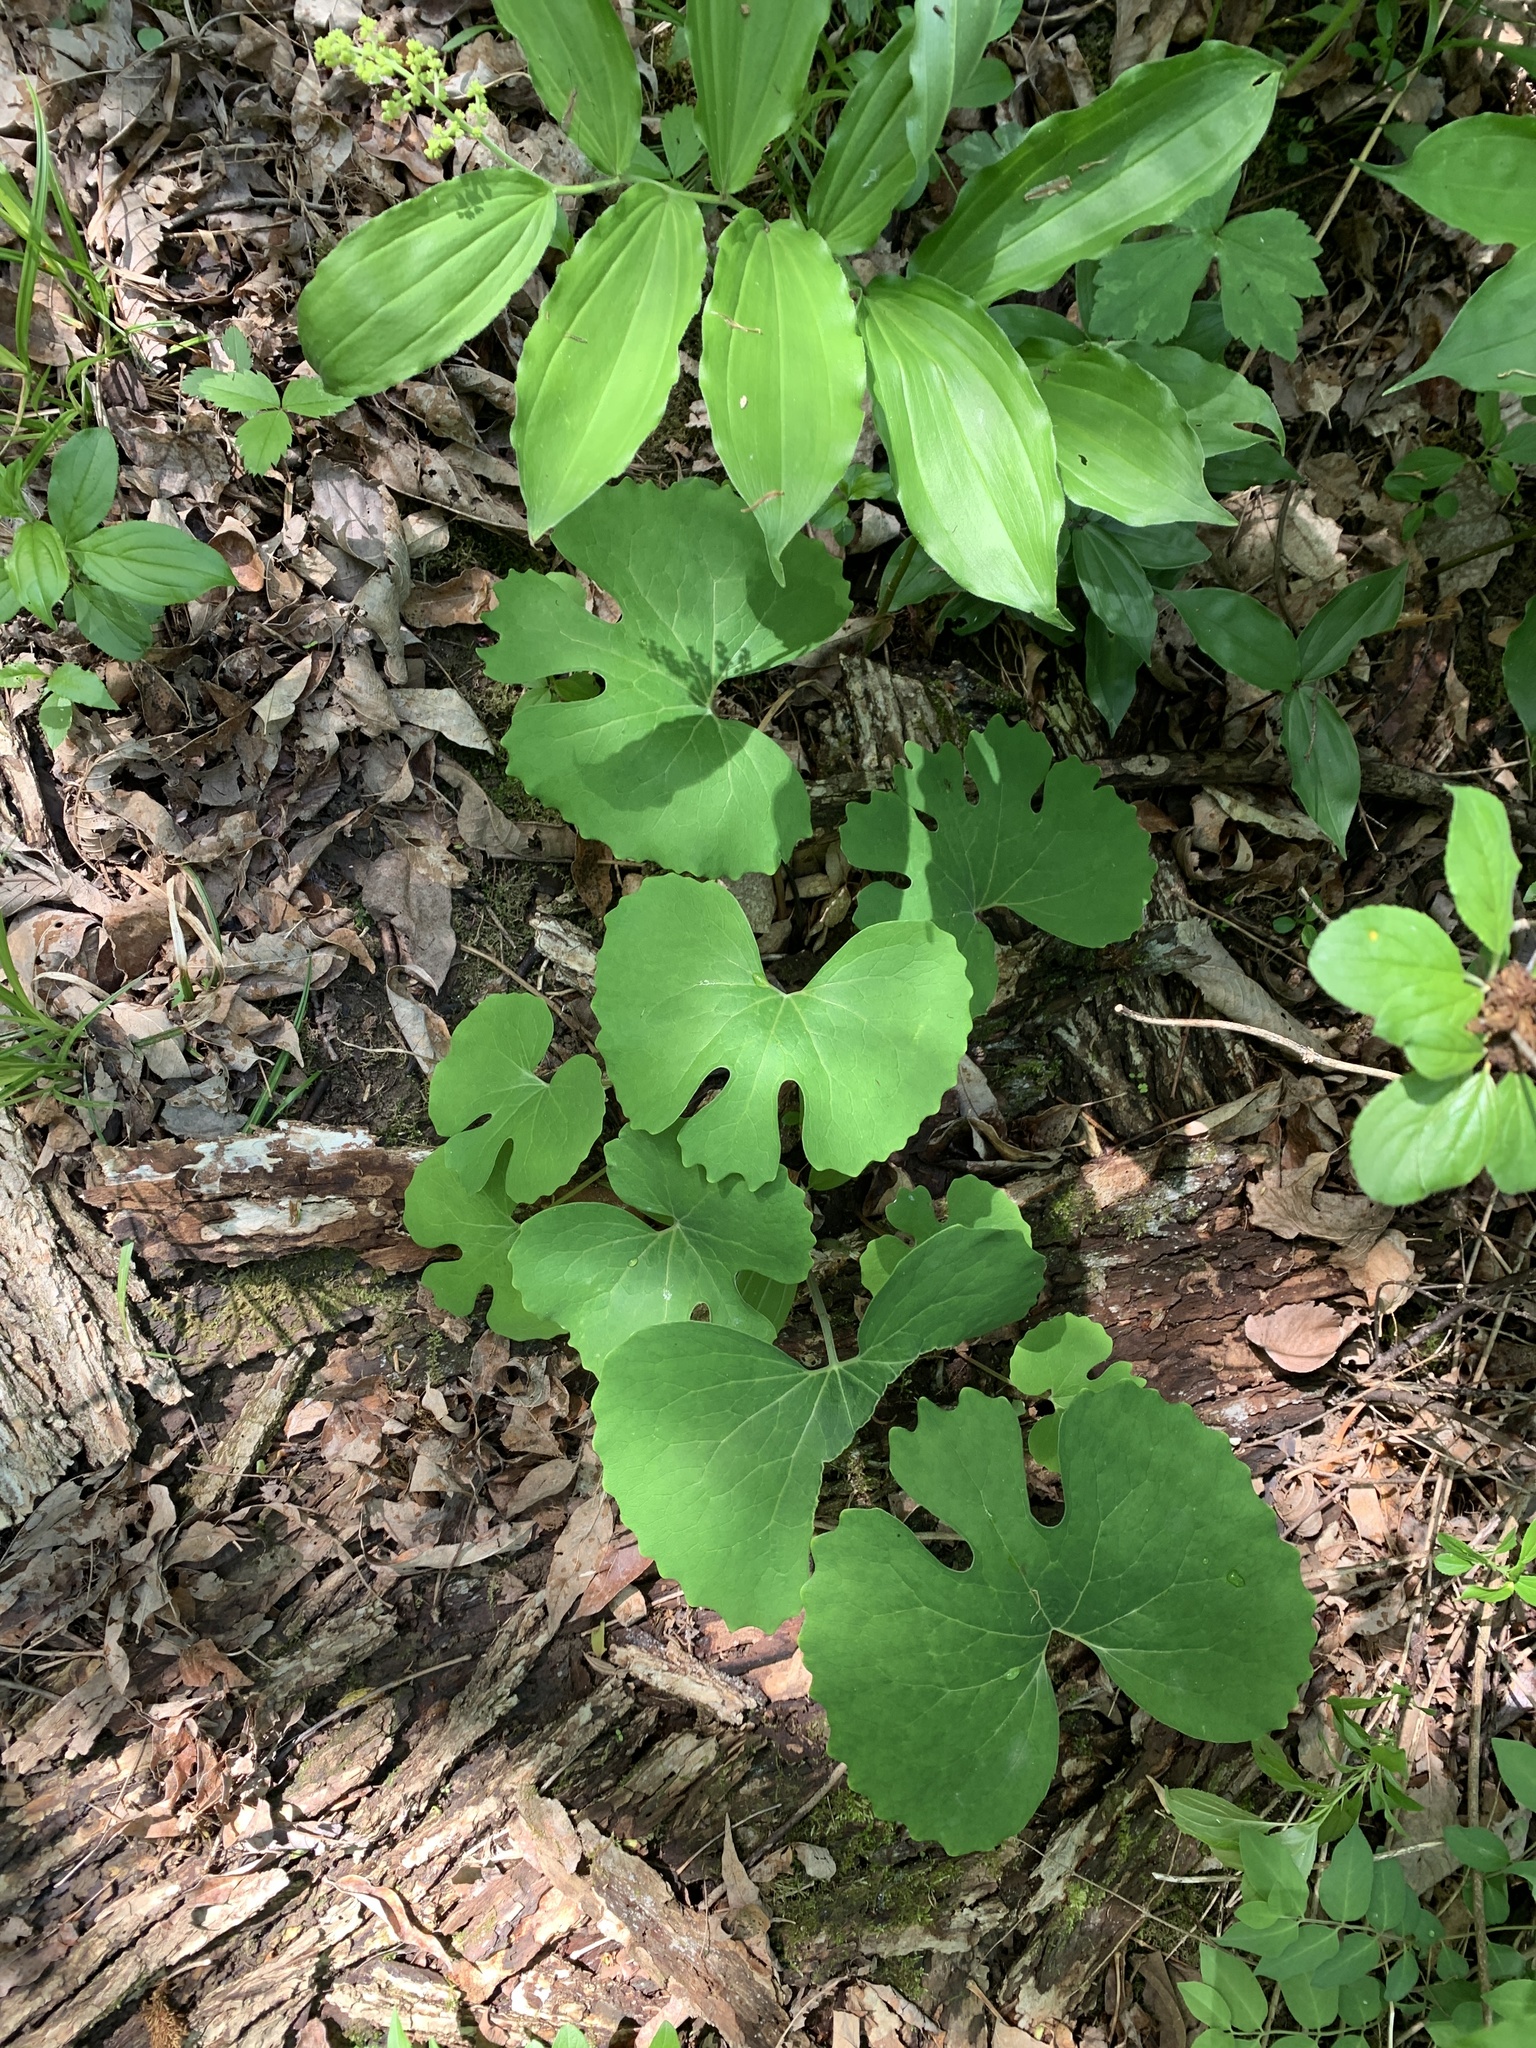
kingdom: Plantae
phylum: Tracheophyta
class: Magnoliopsida
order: Ranunculales
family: Papaveraceae
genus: Sanguinaria
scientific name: Sanguinaria canadensis
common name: Bloodroot
